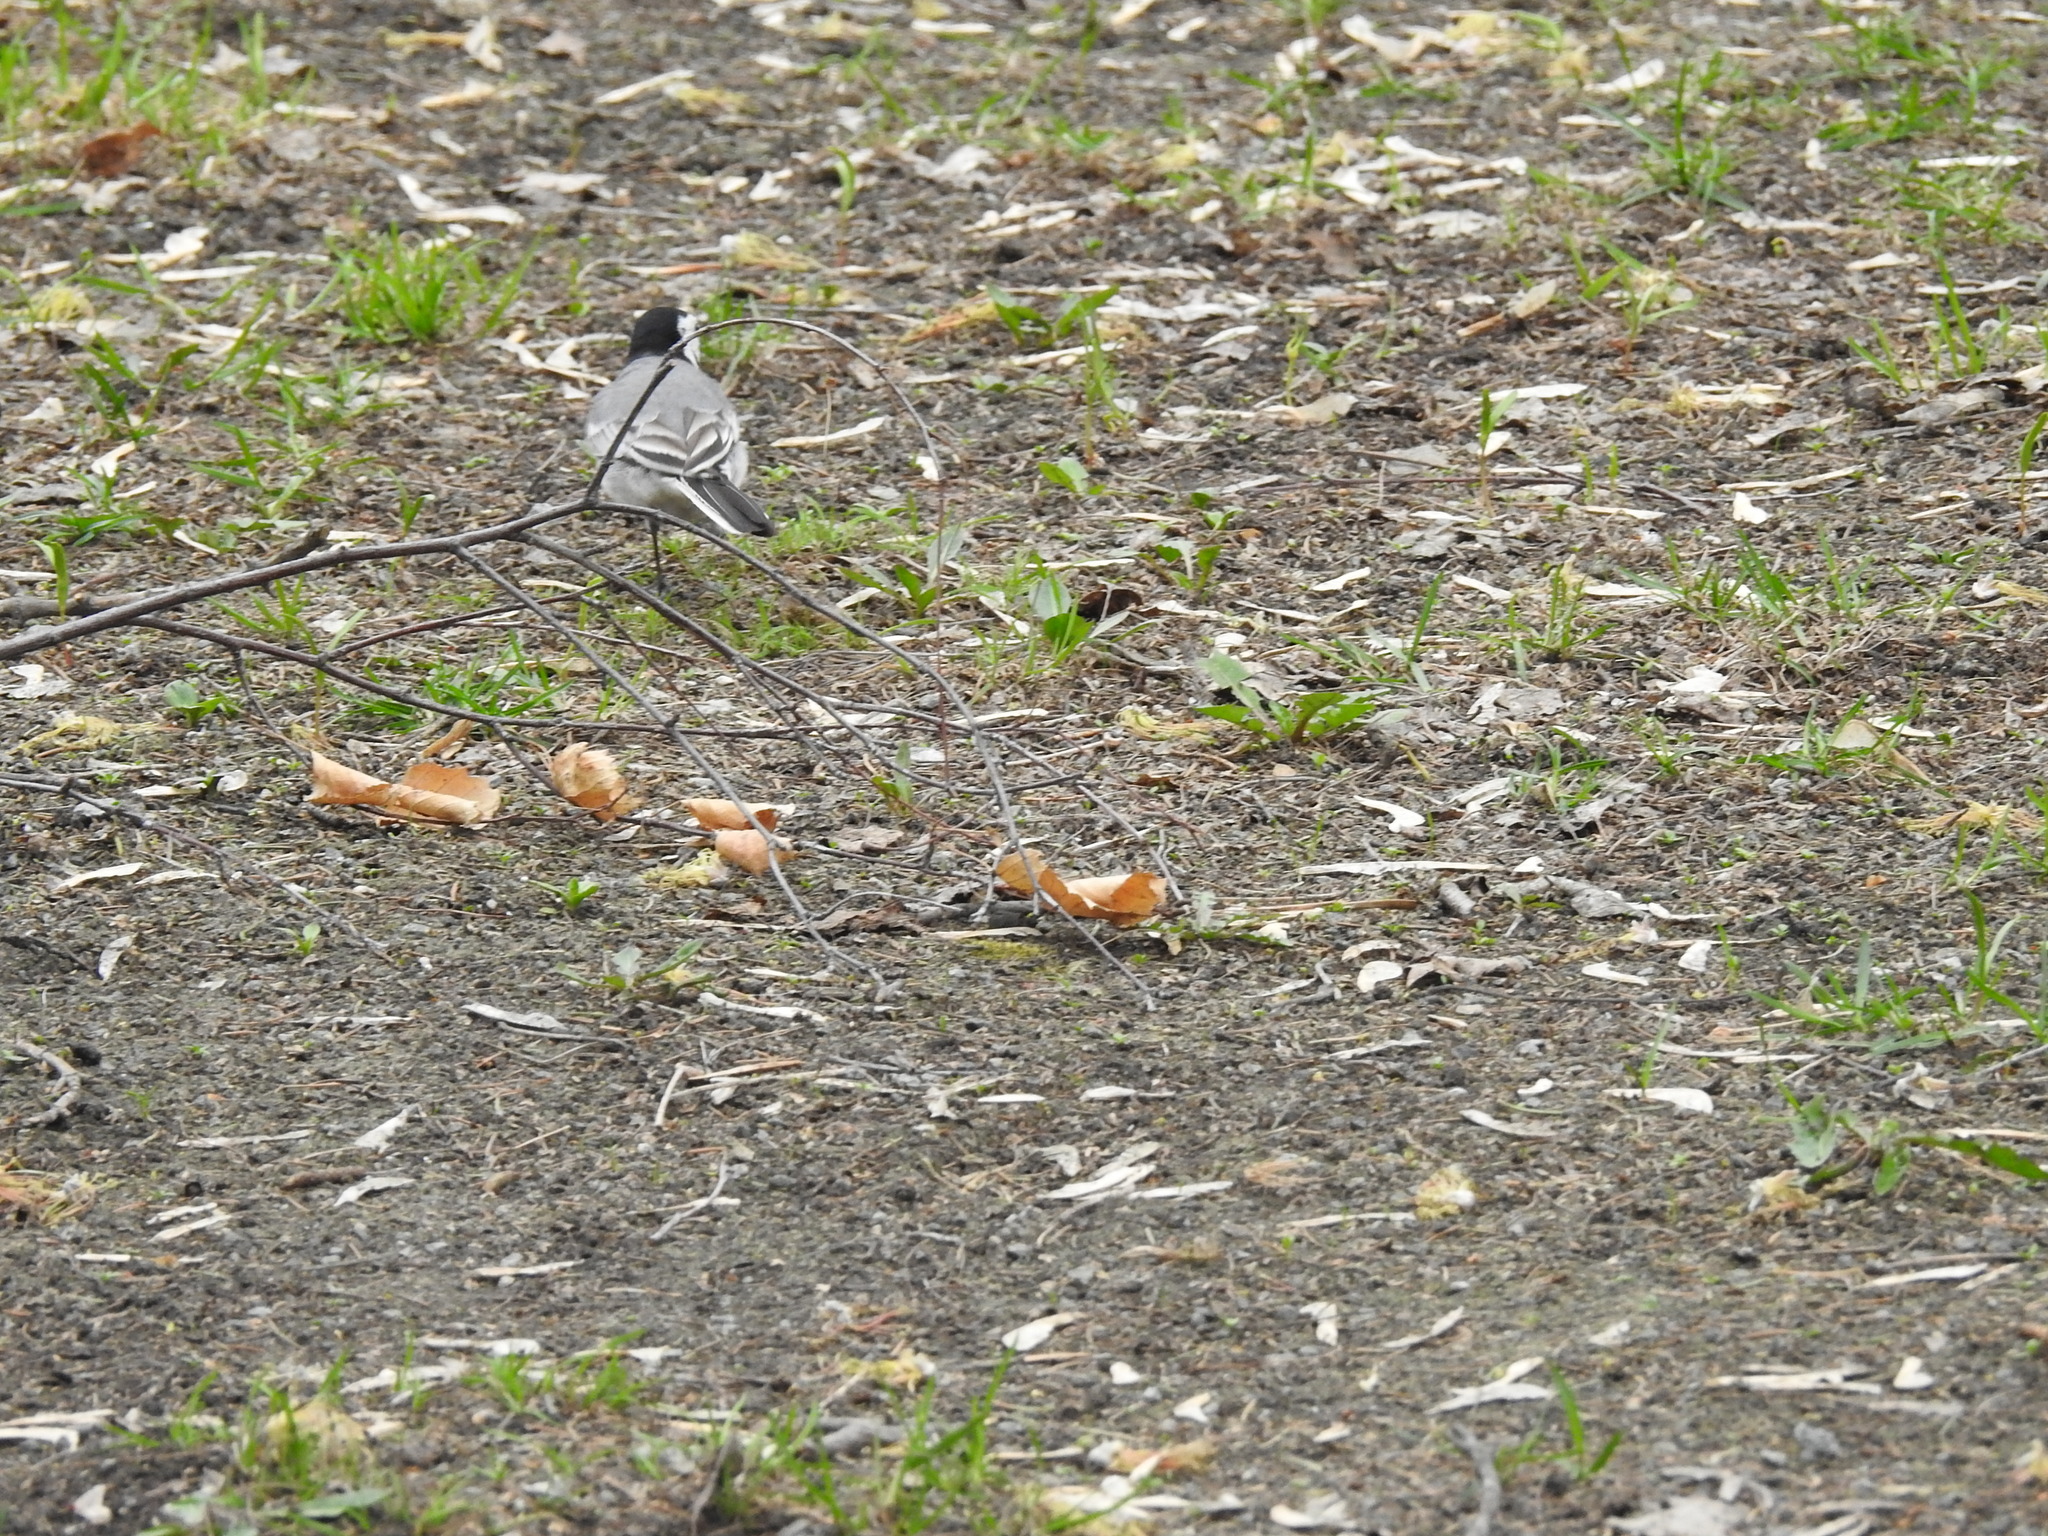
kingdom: Animalia
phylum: Chordata
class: Aves
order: Passeriformes
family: Motacillidae
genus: Motacilla
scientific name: Motacilla alba
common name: White wagtail
